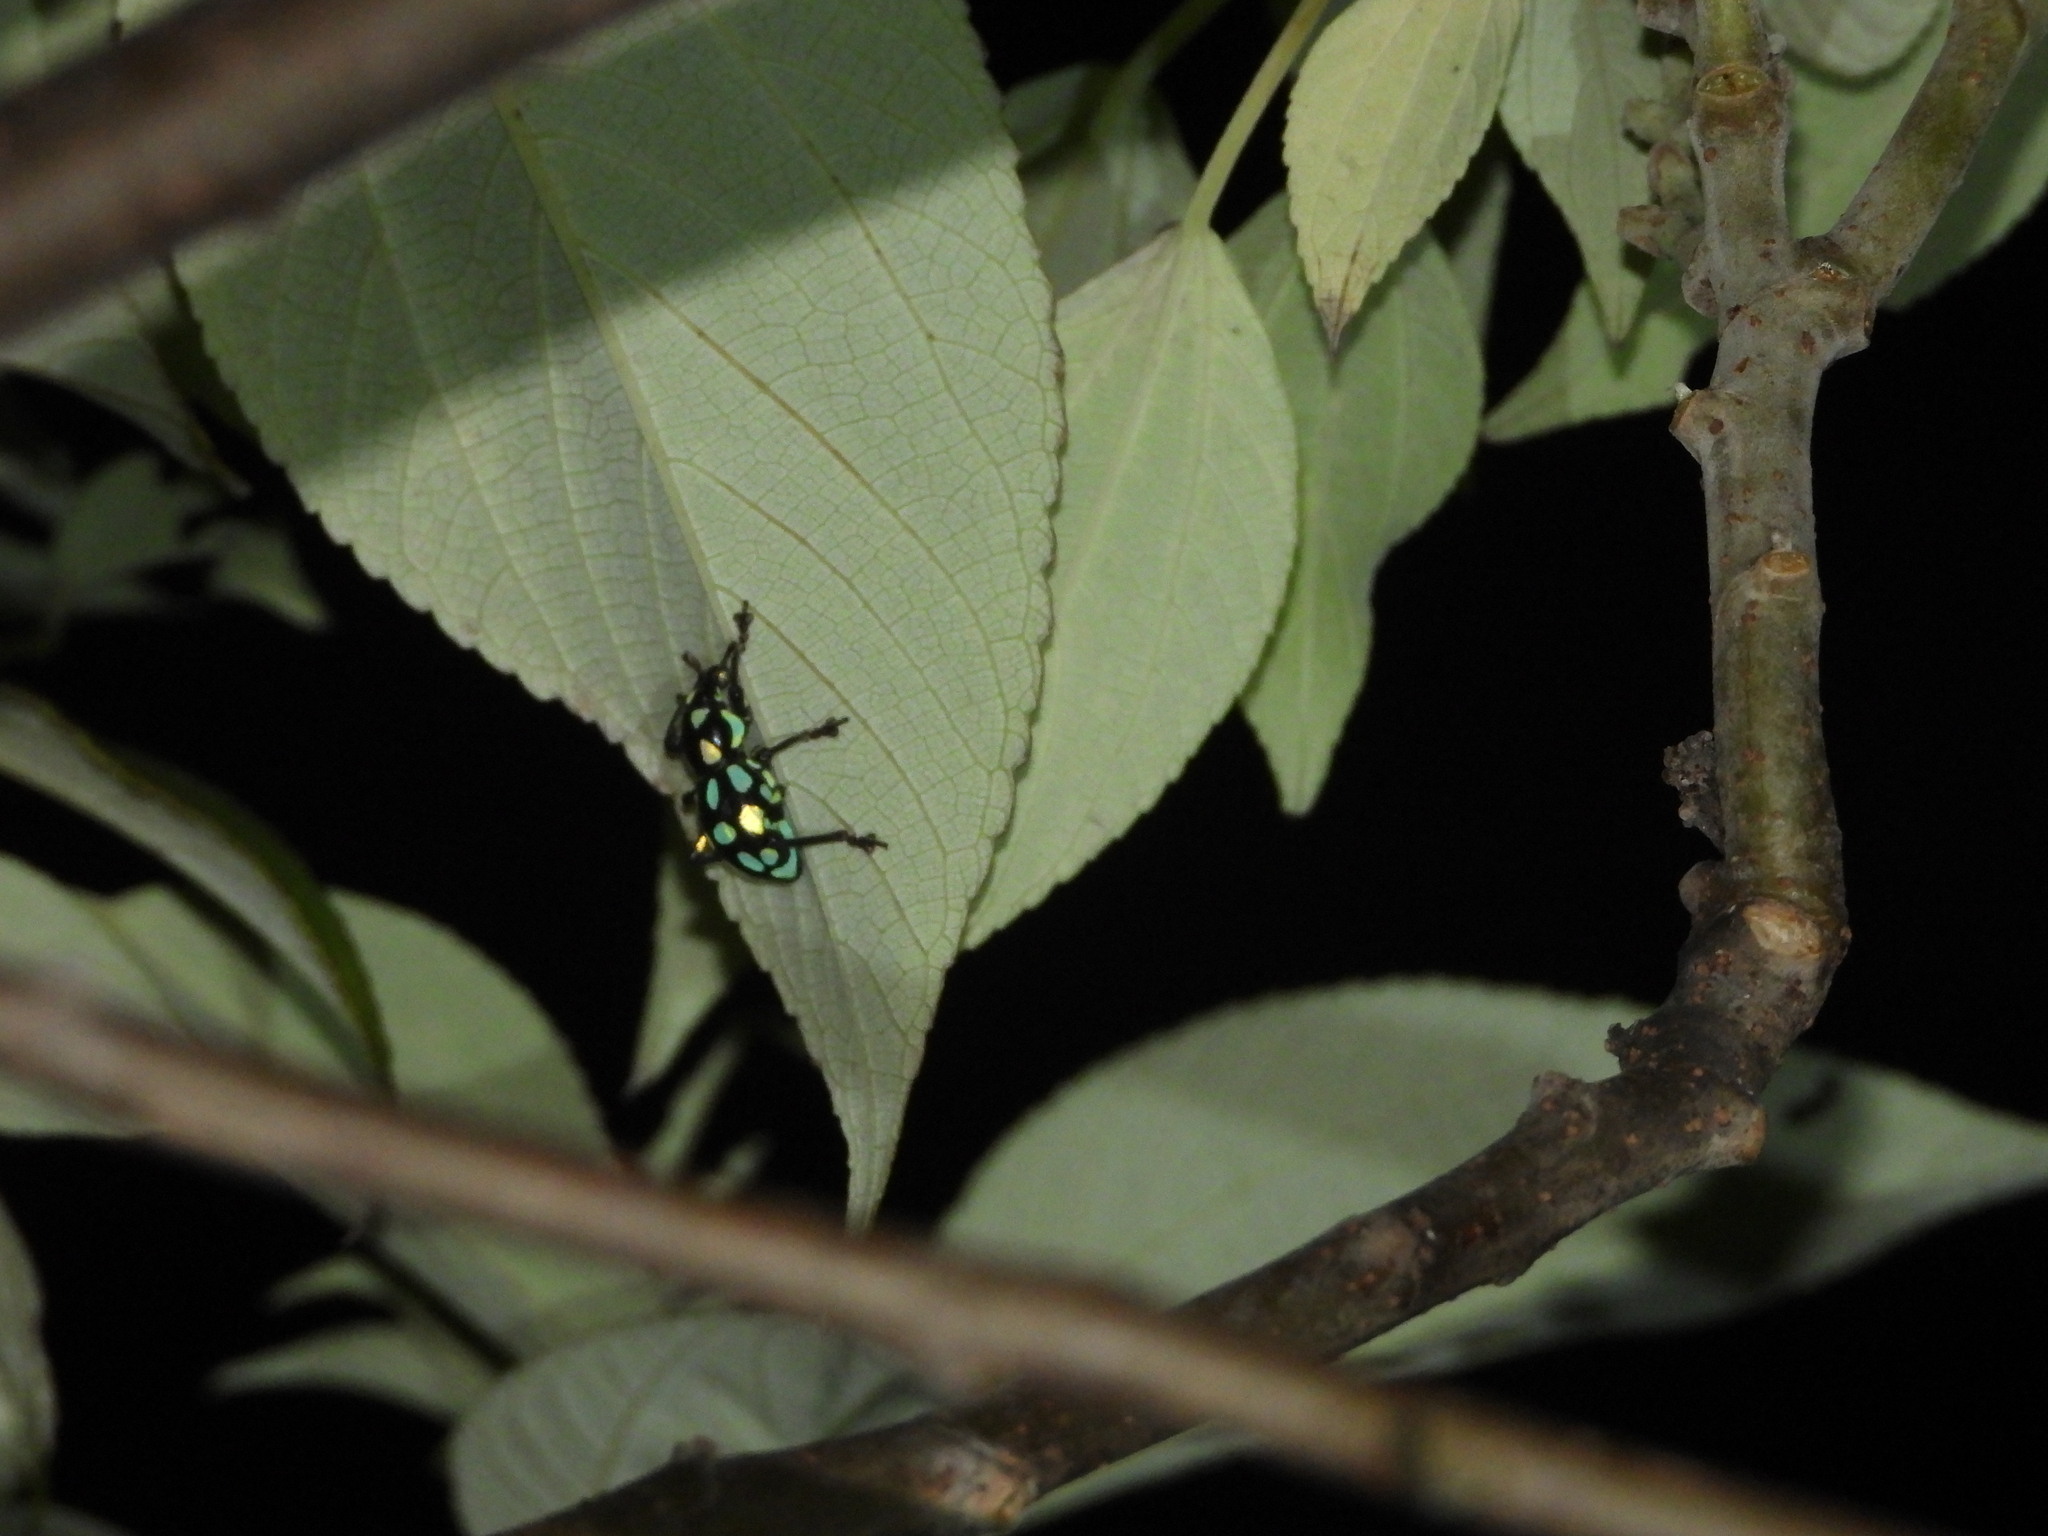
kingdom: Animalia
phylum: Arthropoda
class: Insecta
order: Coleoptera
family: Curculionidae
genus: Pachyrhynchus
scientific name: Pachyrhynchus tobafolius
